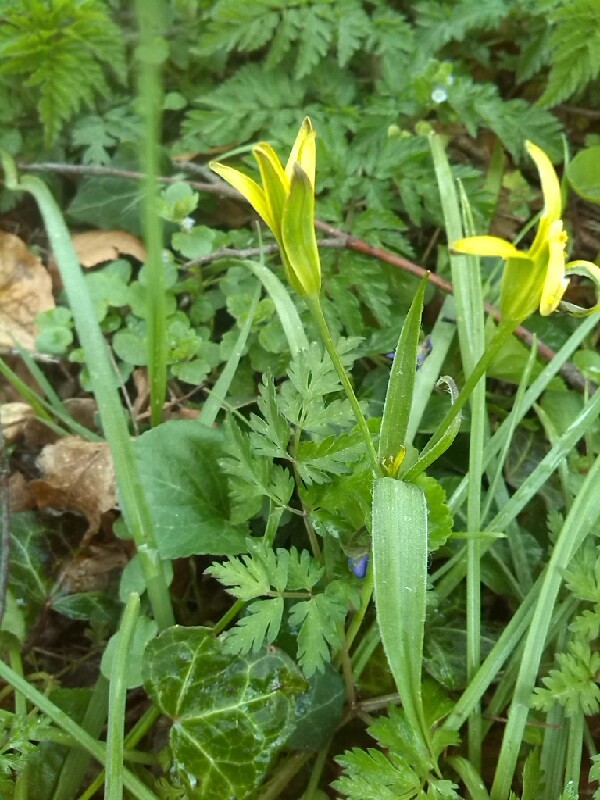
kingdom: Plantae
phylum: Tracheophyta
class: Liliopsida
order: Liliales
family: Liliaceae
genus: Gagea
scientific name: Gagea pratensis
